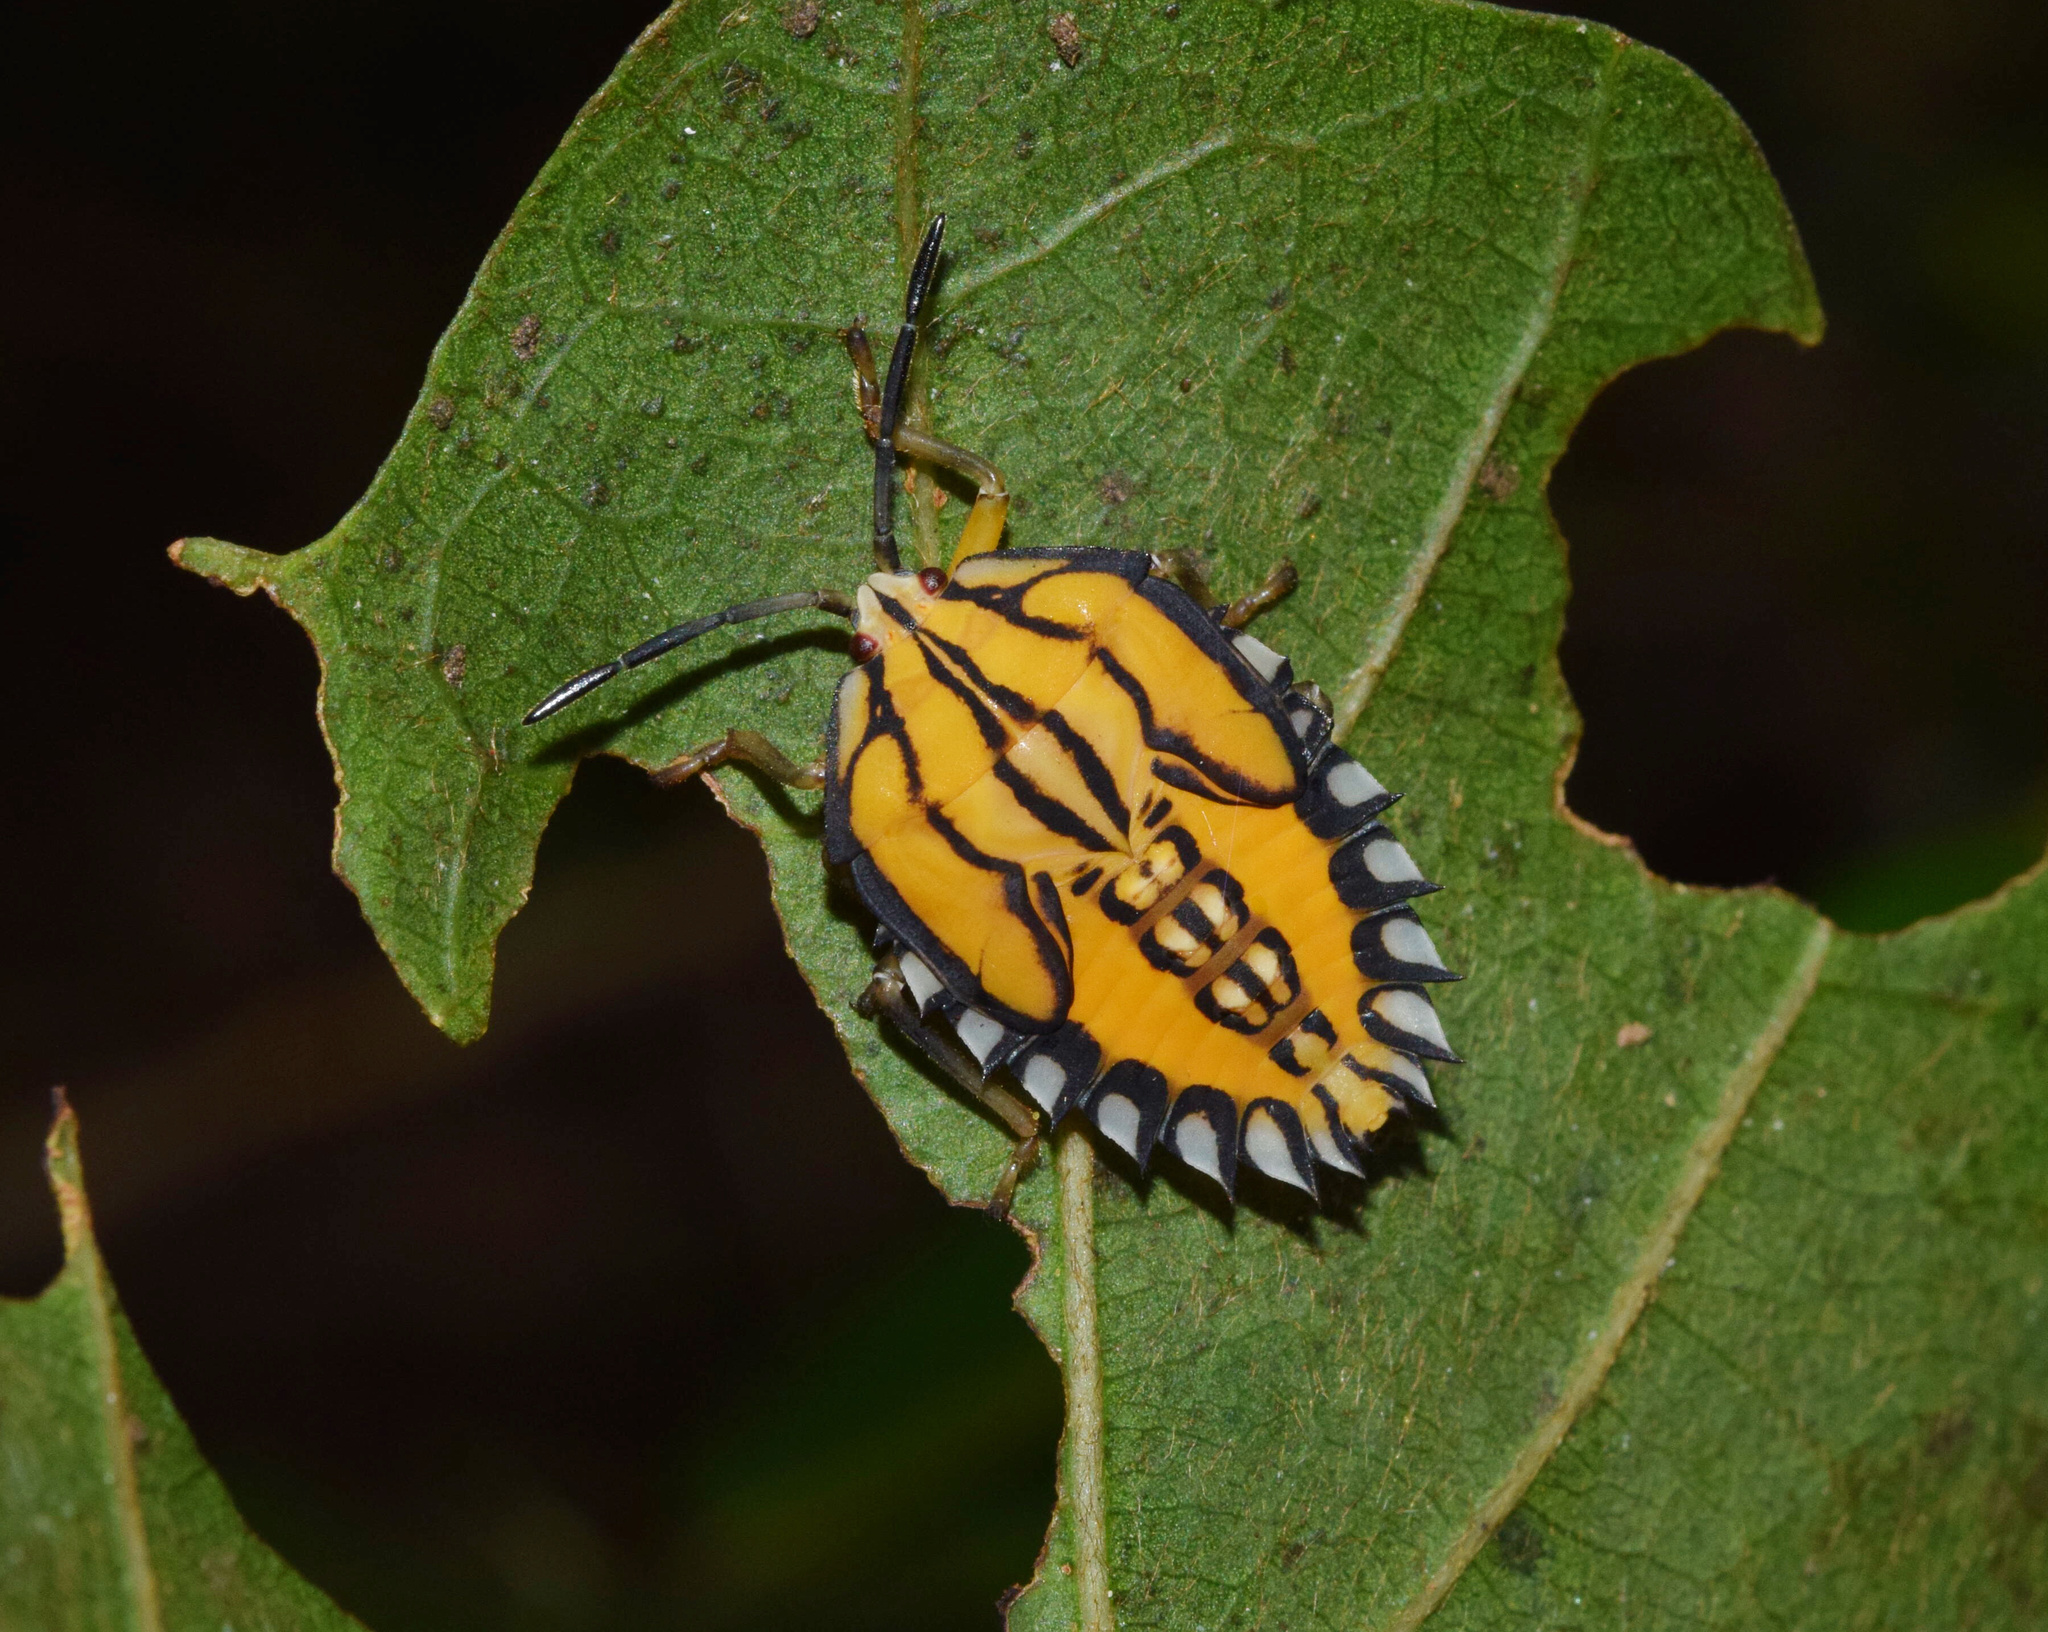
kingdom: Animalia
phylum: Arthropoda
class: Insecta
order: Hemiptera
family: Tessaratomidae
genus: Piezosternum
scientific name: Piezosternum calidum
